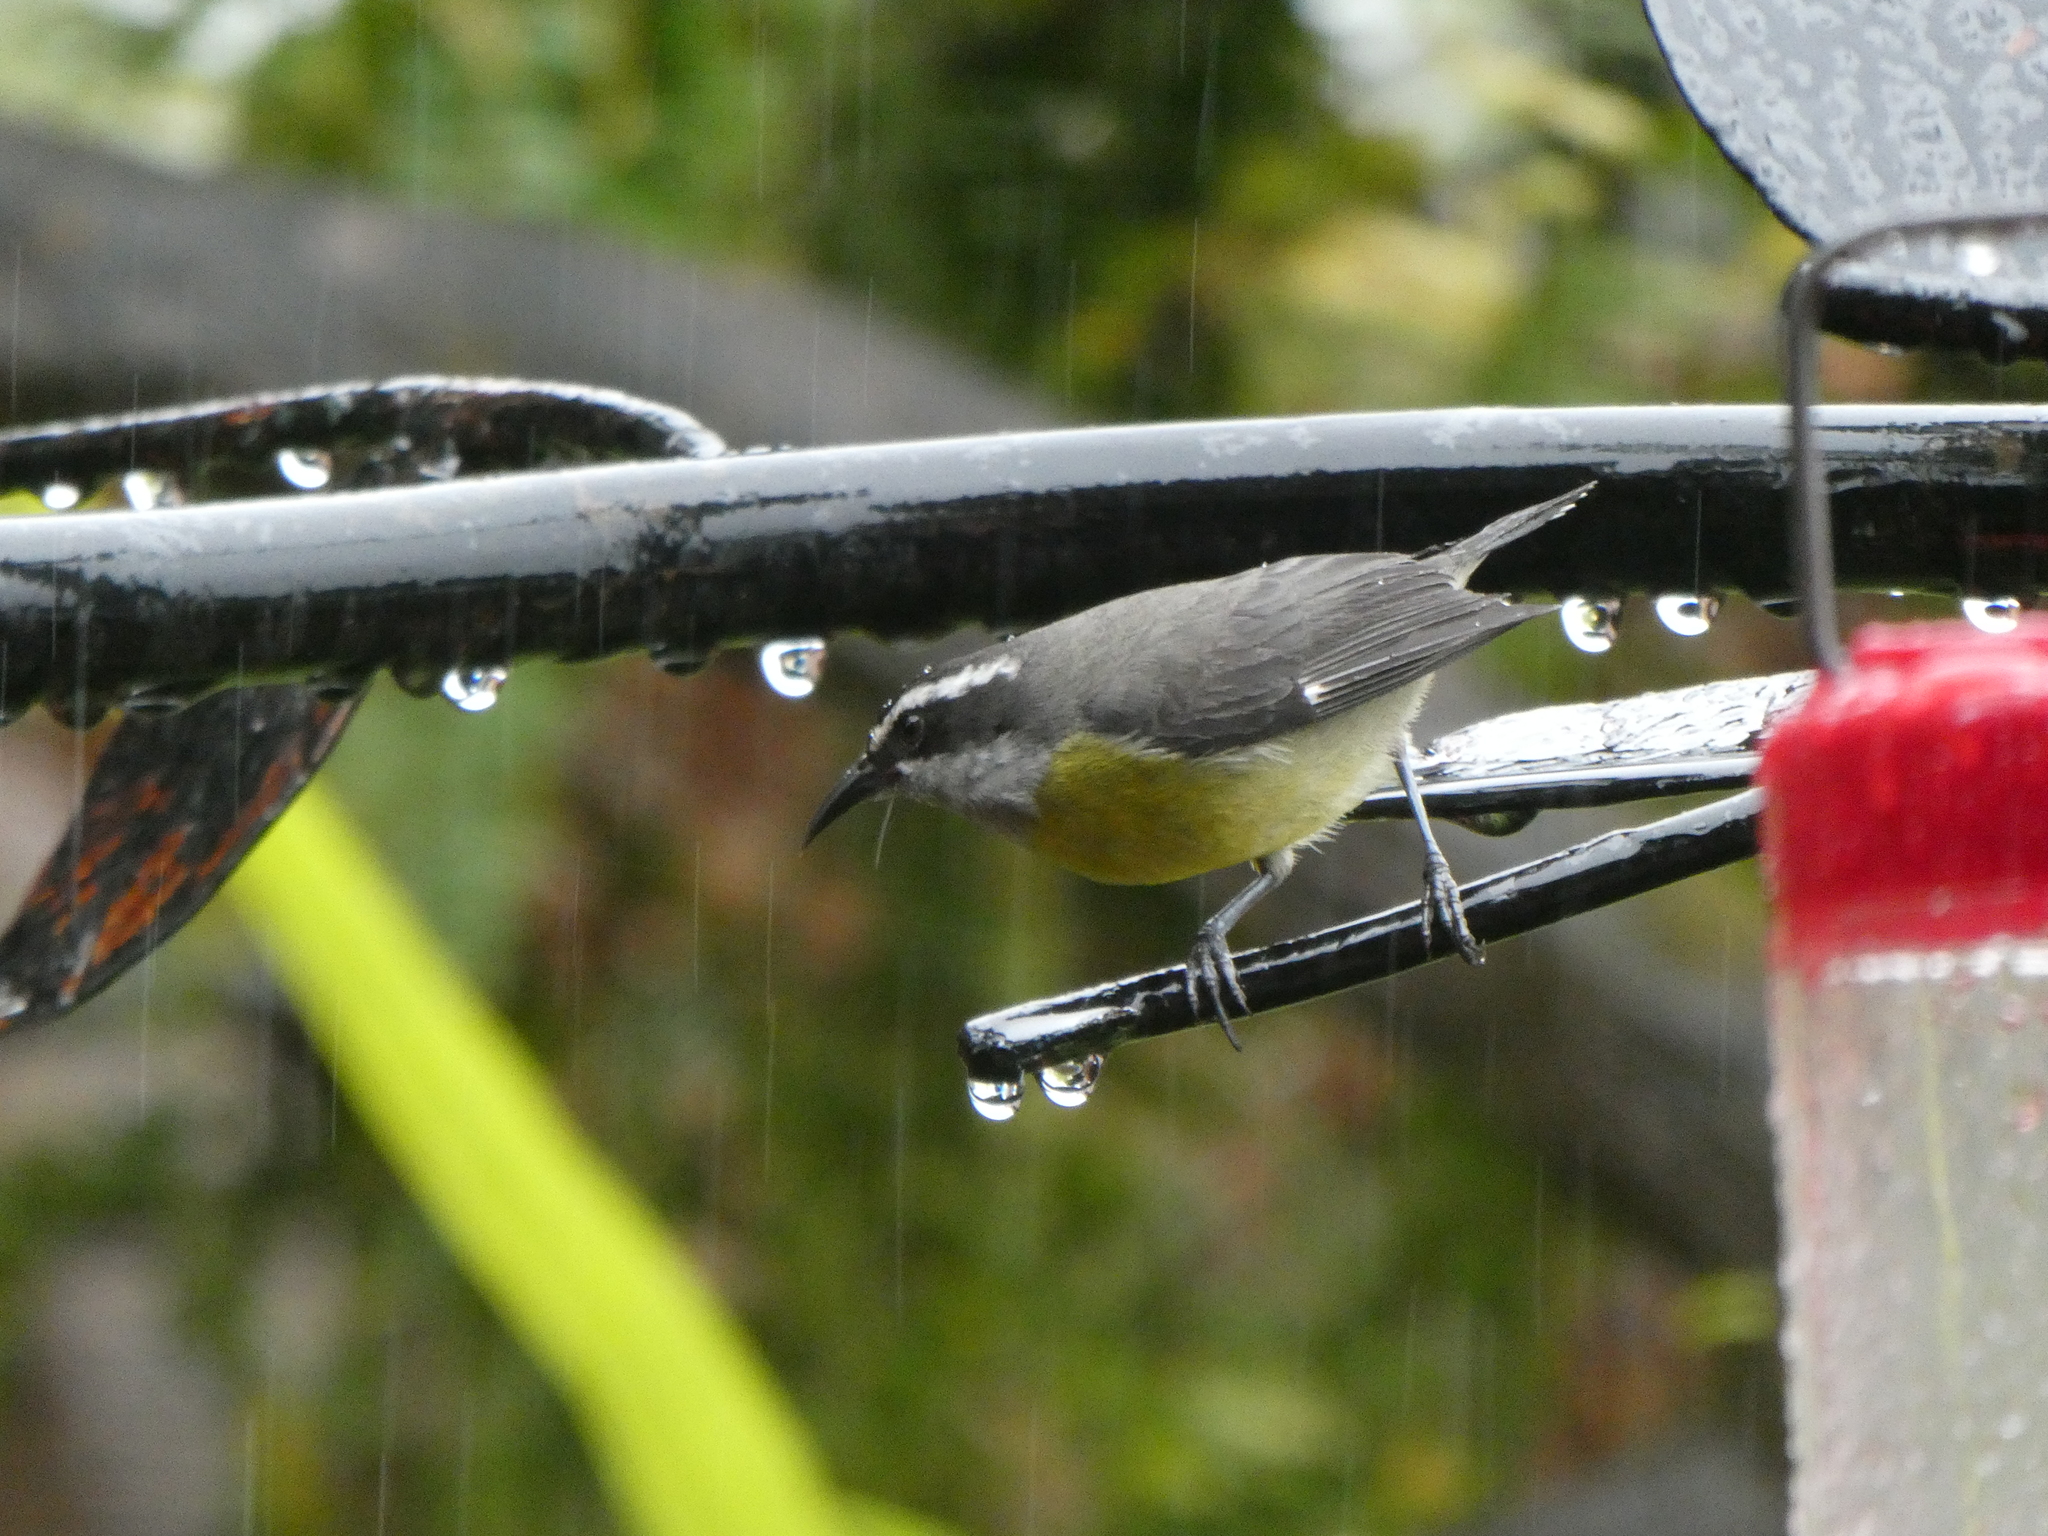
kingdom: Animalia
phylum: Chordata
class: Aves
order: Passeriformes
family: Thraupidae
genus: Coereba
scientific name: Coereba flaveola
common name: Bananaquit
